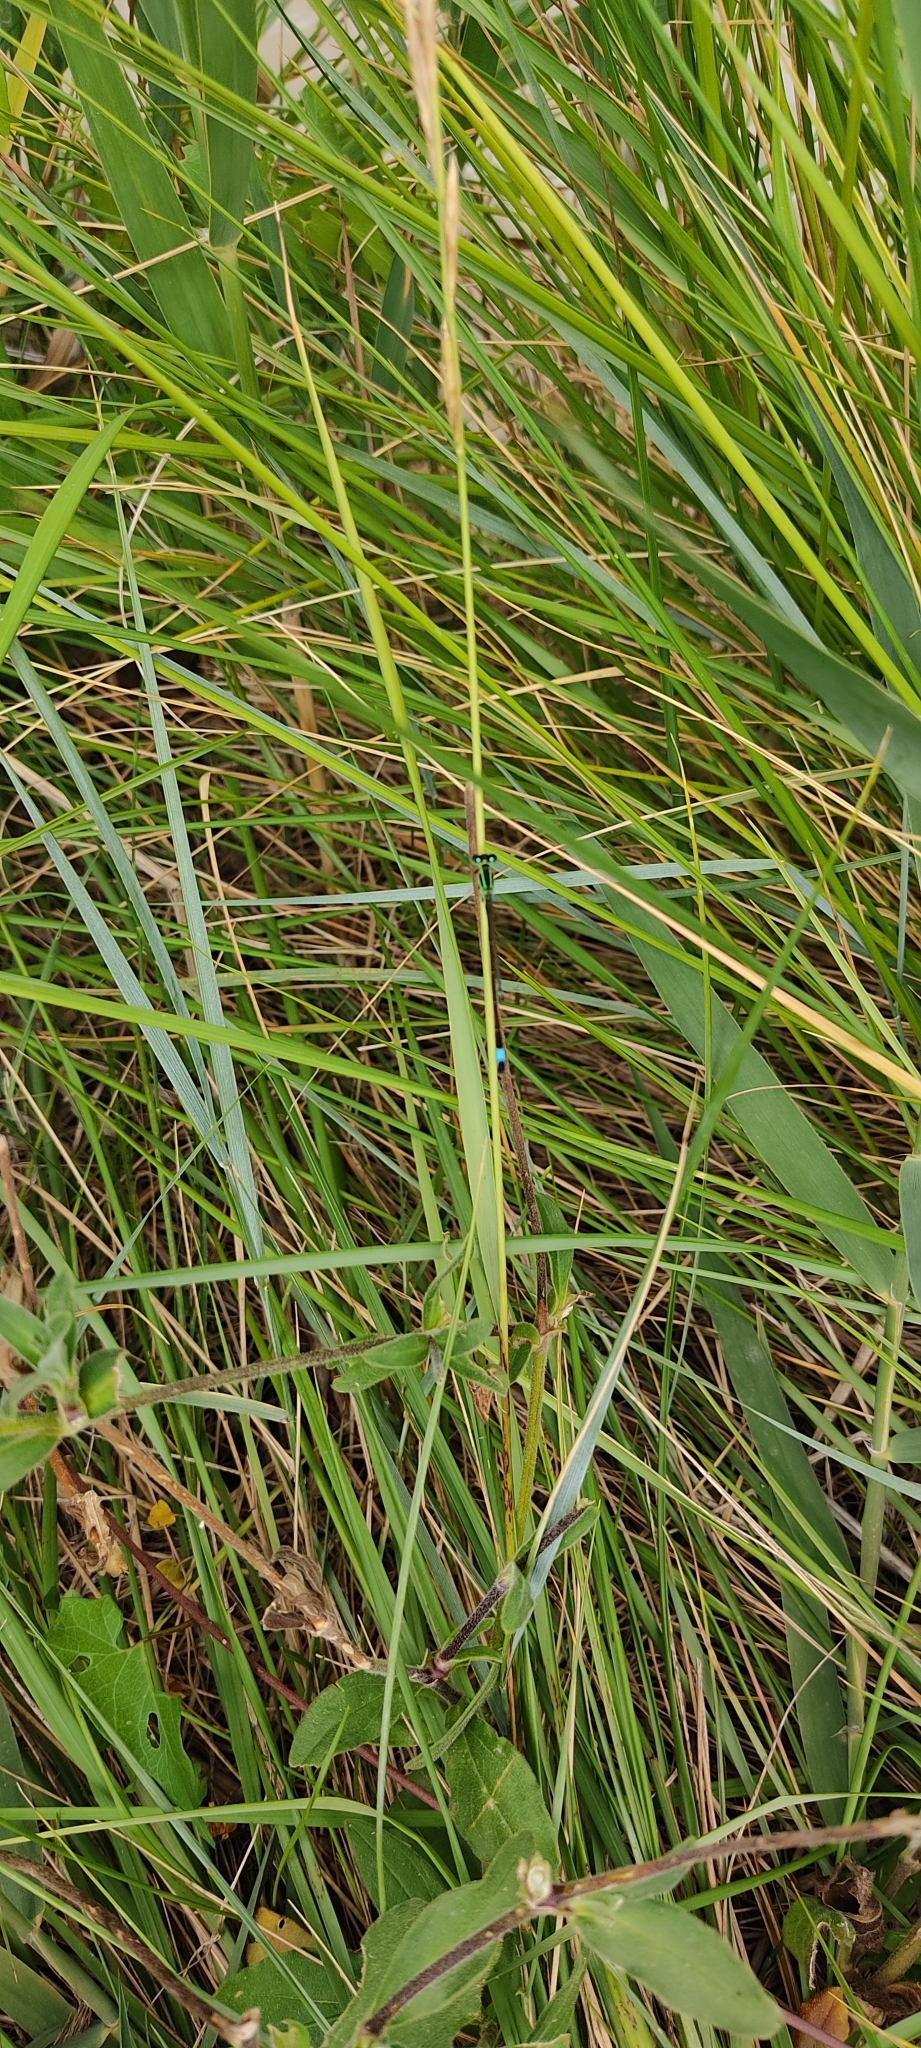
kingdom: Animalia
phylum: Arthropoda
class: Insecta
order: Odonata
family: Coenagrionidae
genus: Ischnura
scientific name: Ischnura elegans
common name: Blue-tailed damselfly
